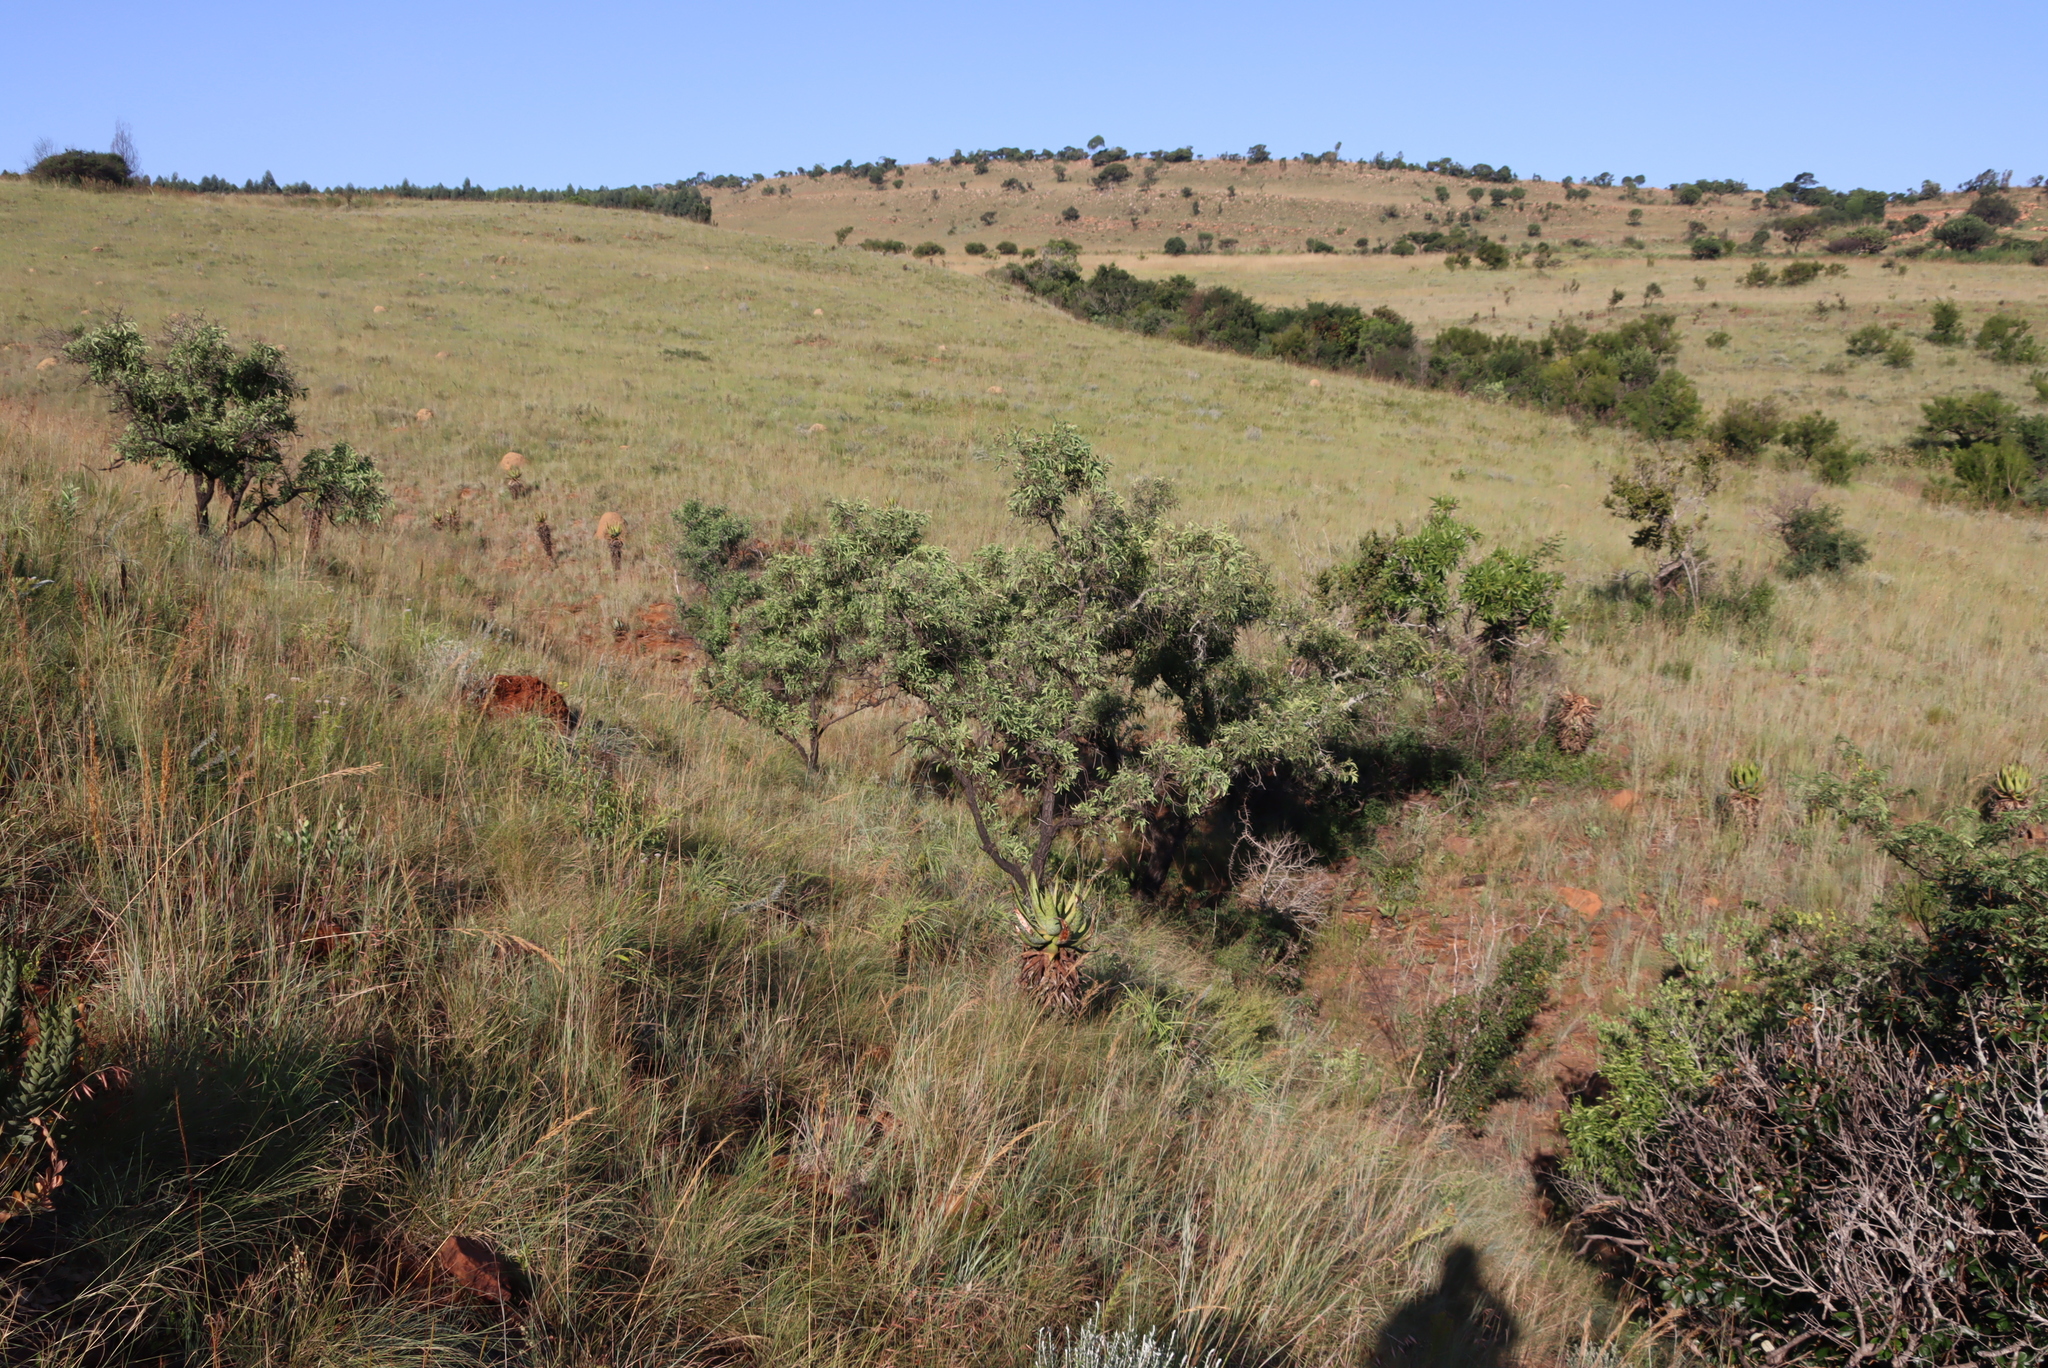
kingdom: Plantae
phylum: Tracheophyta
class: Magnoliopsida
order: Proteales
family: Proteaceae
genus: Faurea
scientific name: Faurea saligna
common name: African bean
